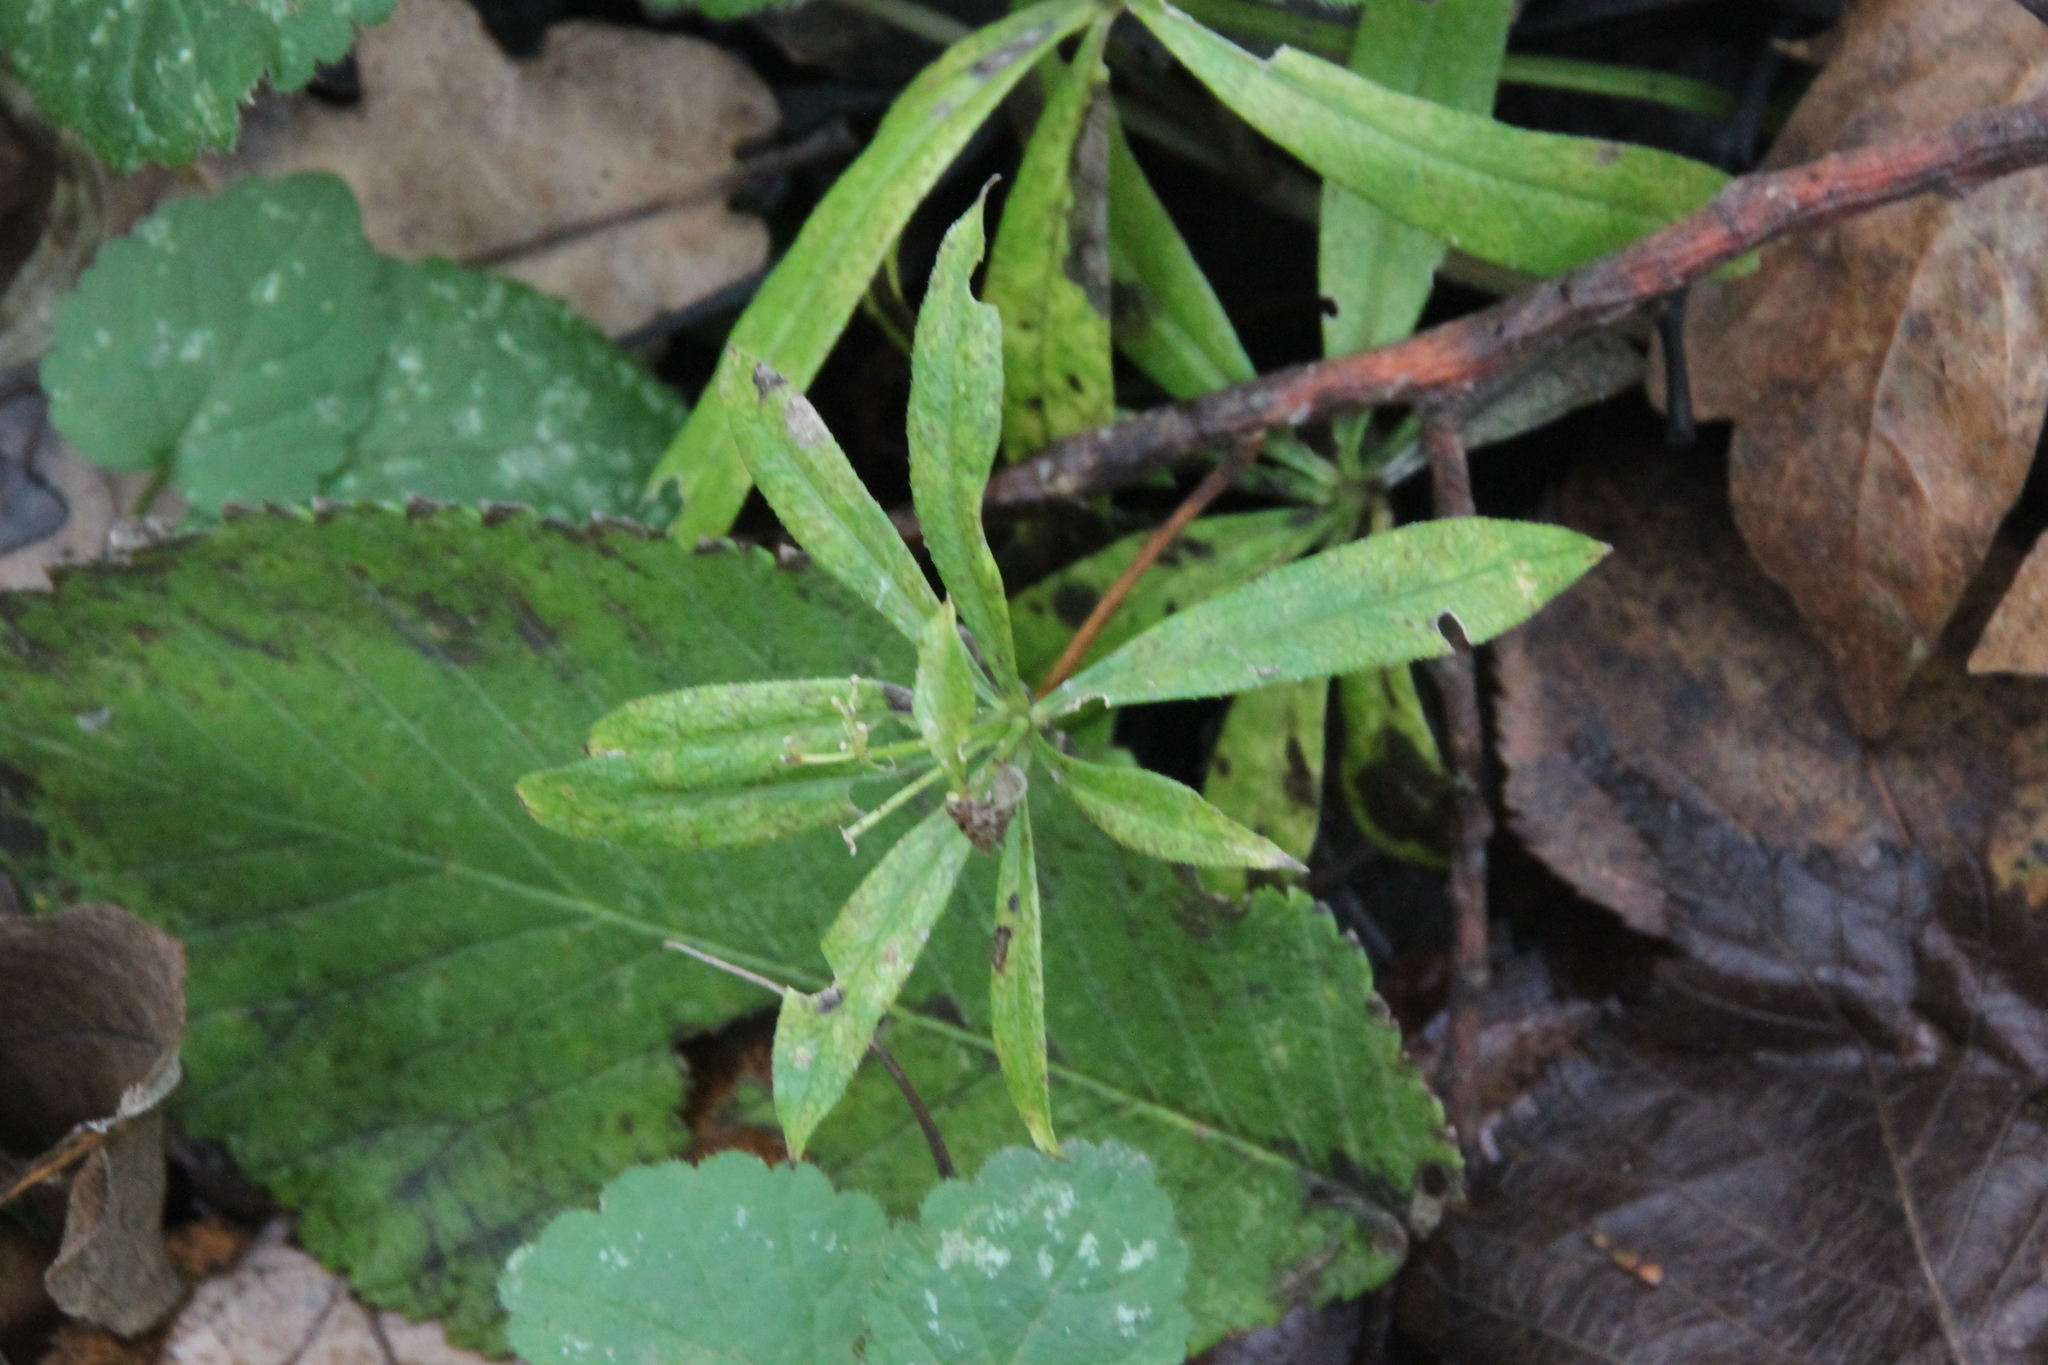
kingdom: Plantae
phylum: Tracheophyta
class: Magnoliopsida
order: Gentianales
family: Rubiaceae
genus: Galium
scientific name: Galium odoratum
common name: Sweet woodruff
